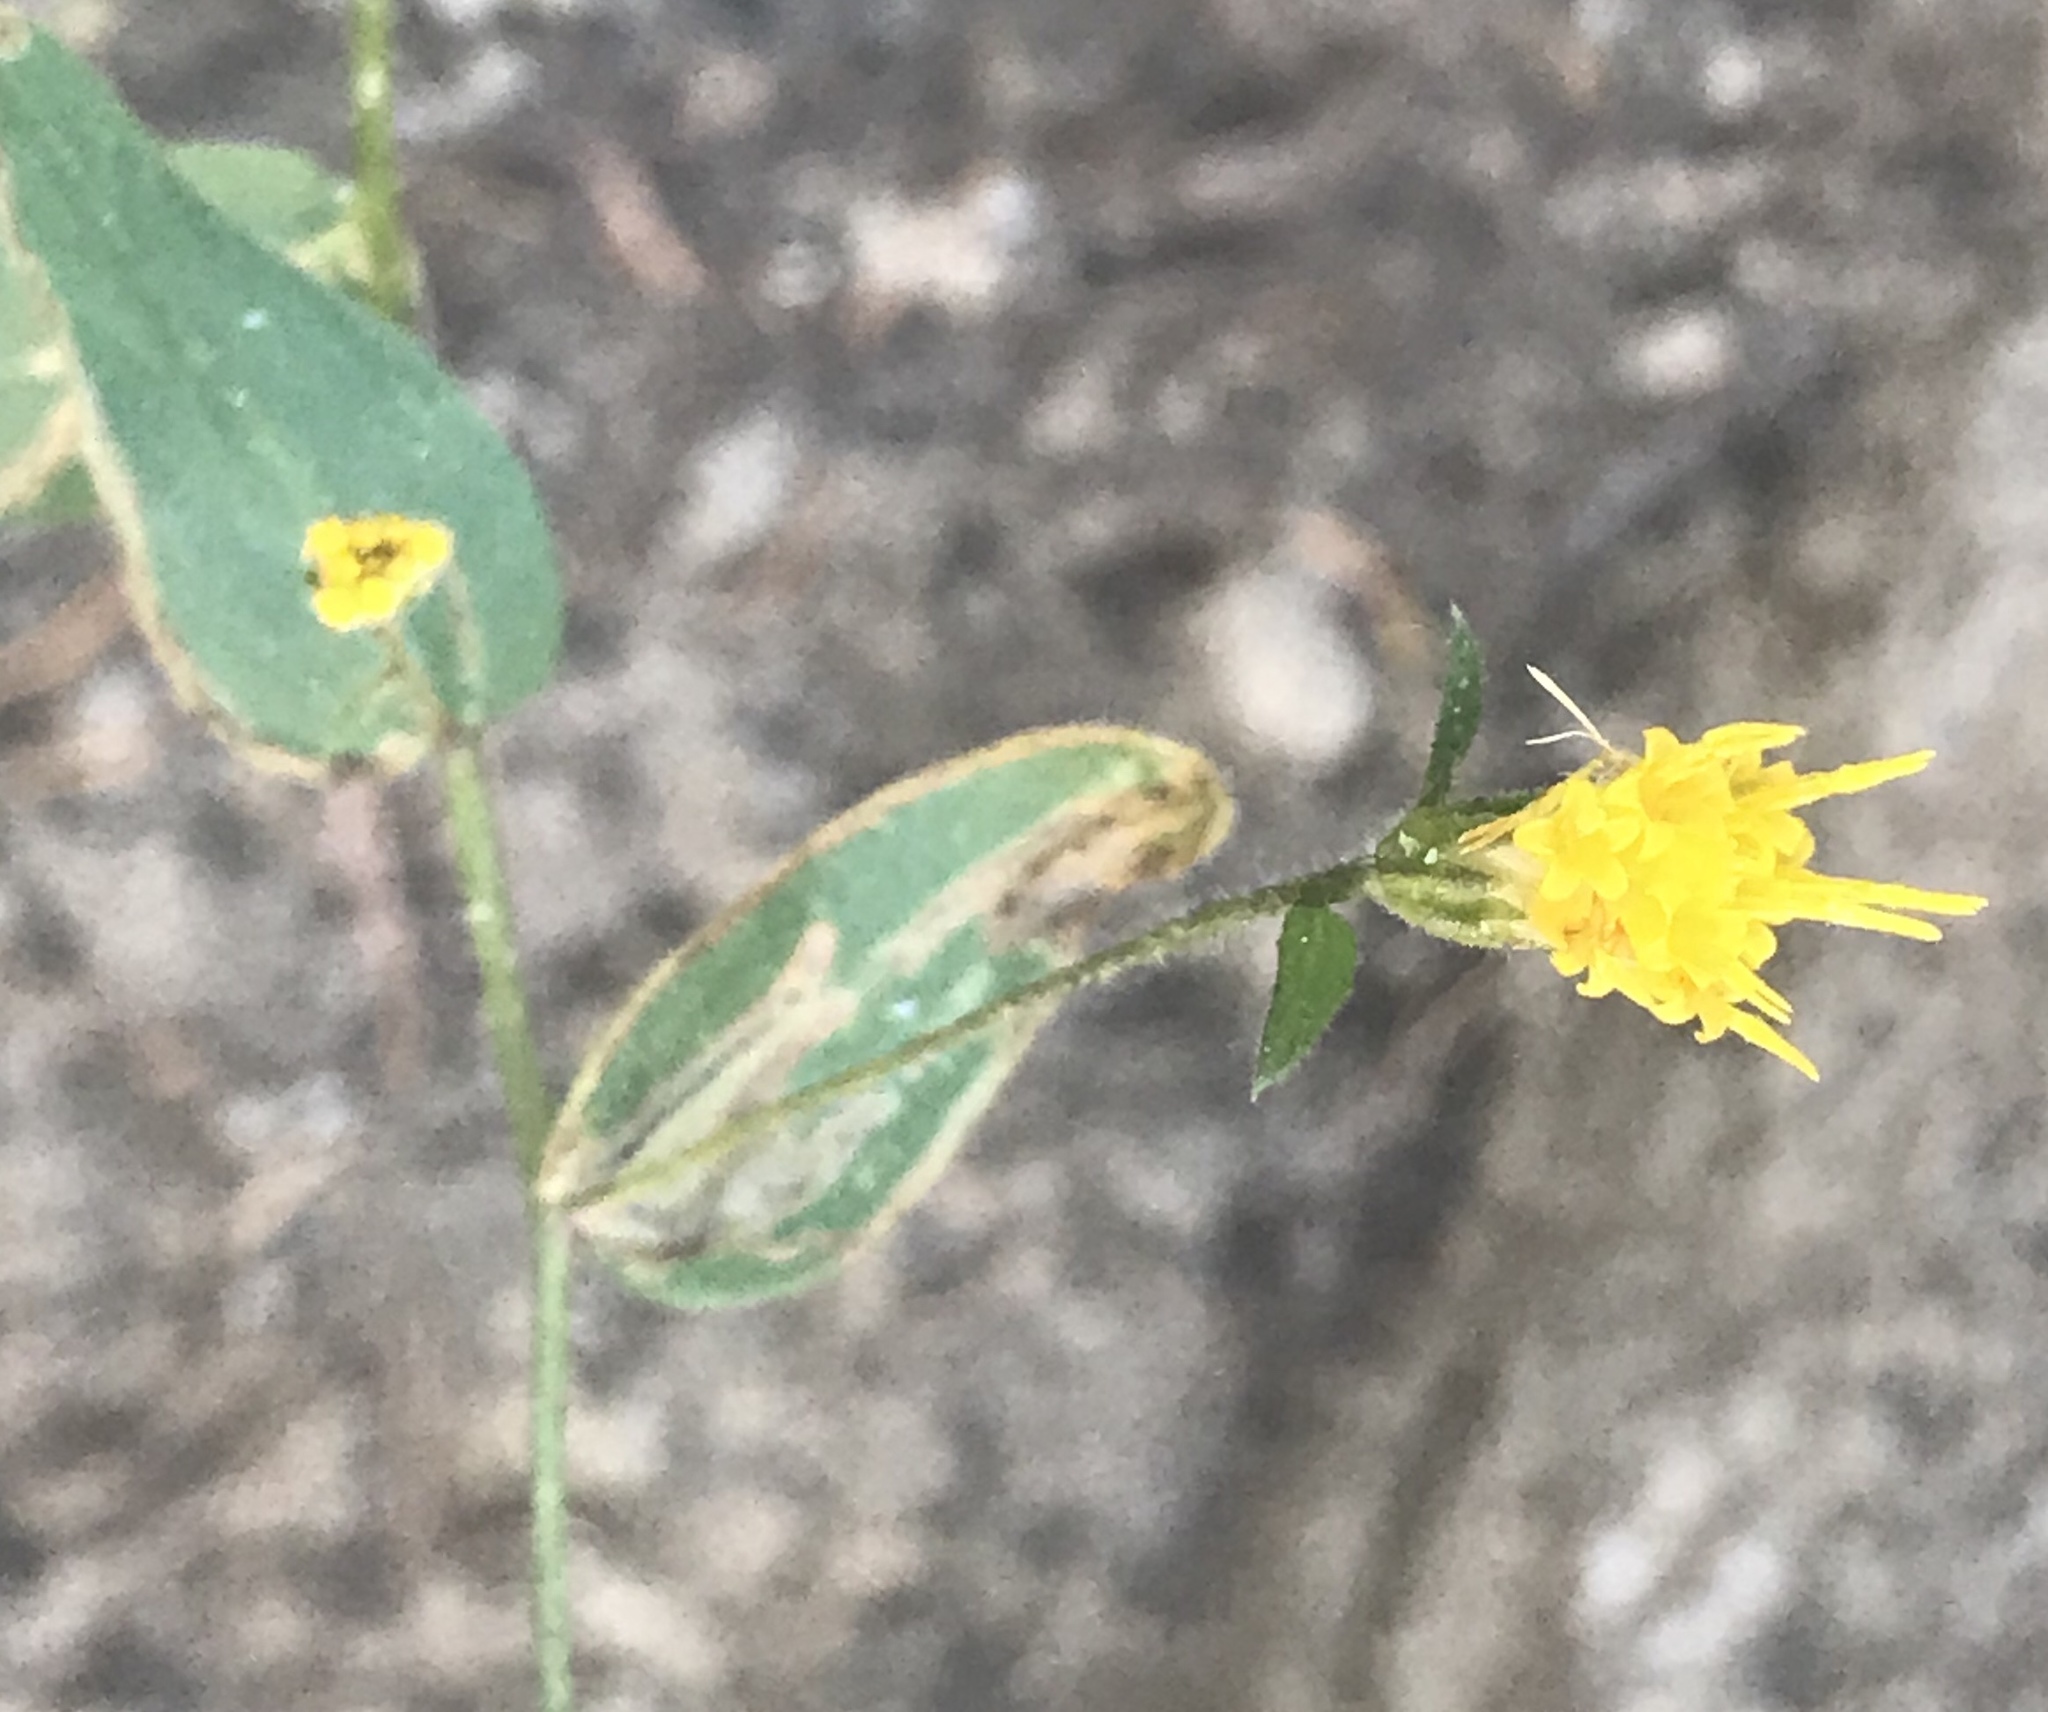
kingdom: Plantae
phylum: Tracheophyta
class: Magnoliopsida
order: Asterales
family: Asteraceae
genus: Eucephalus
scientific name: Eucephalus breweri
